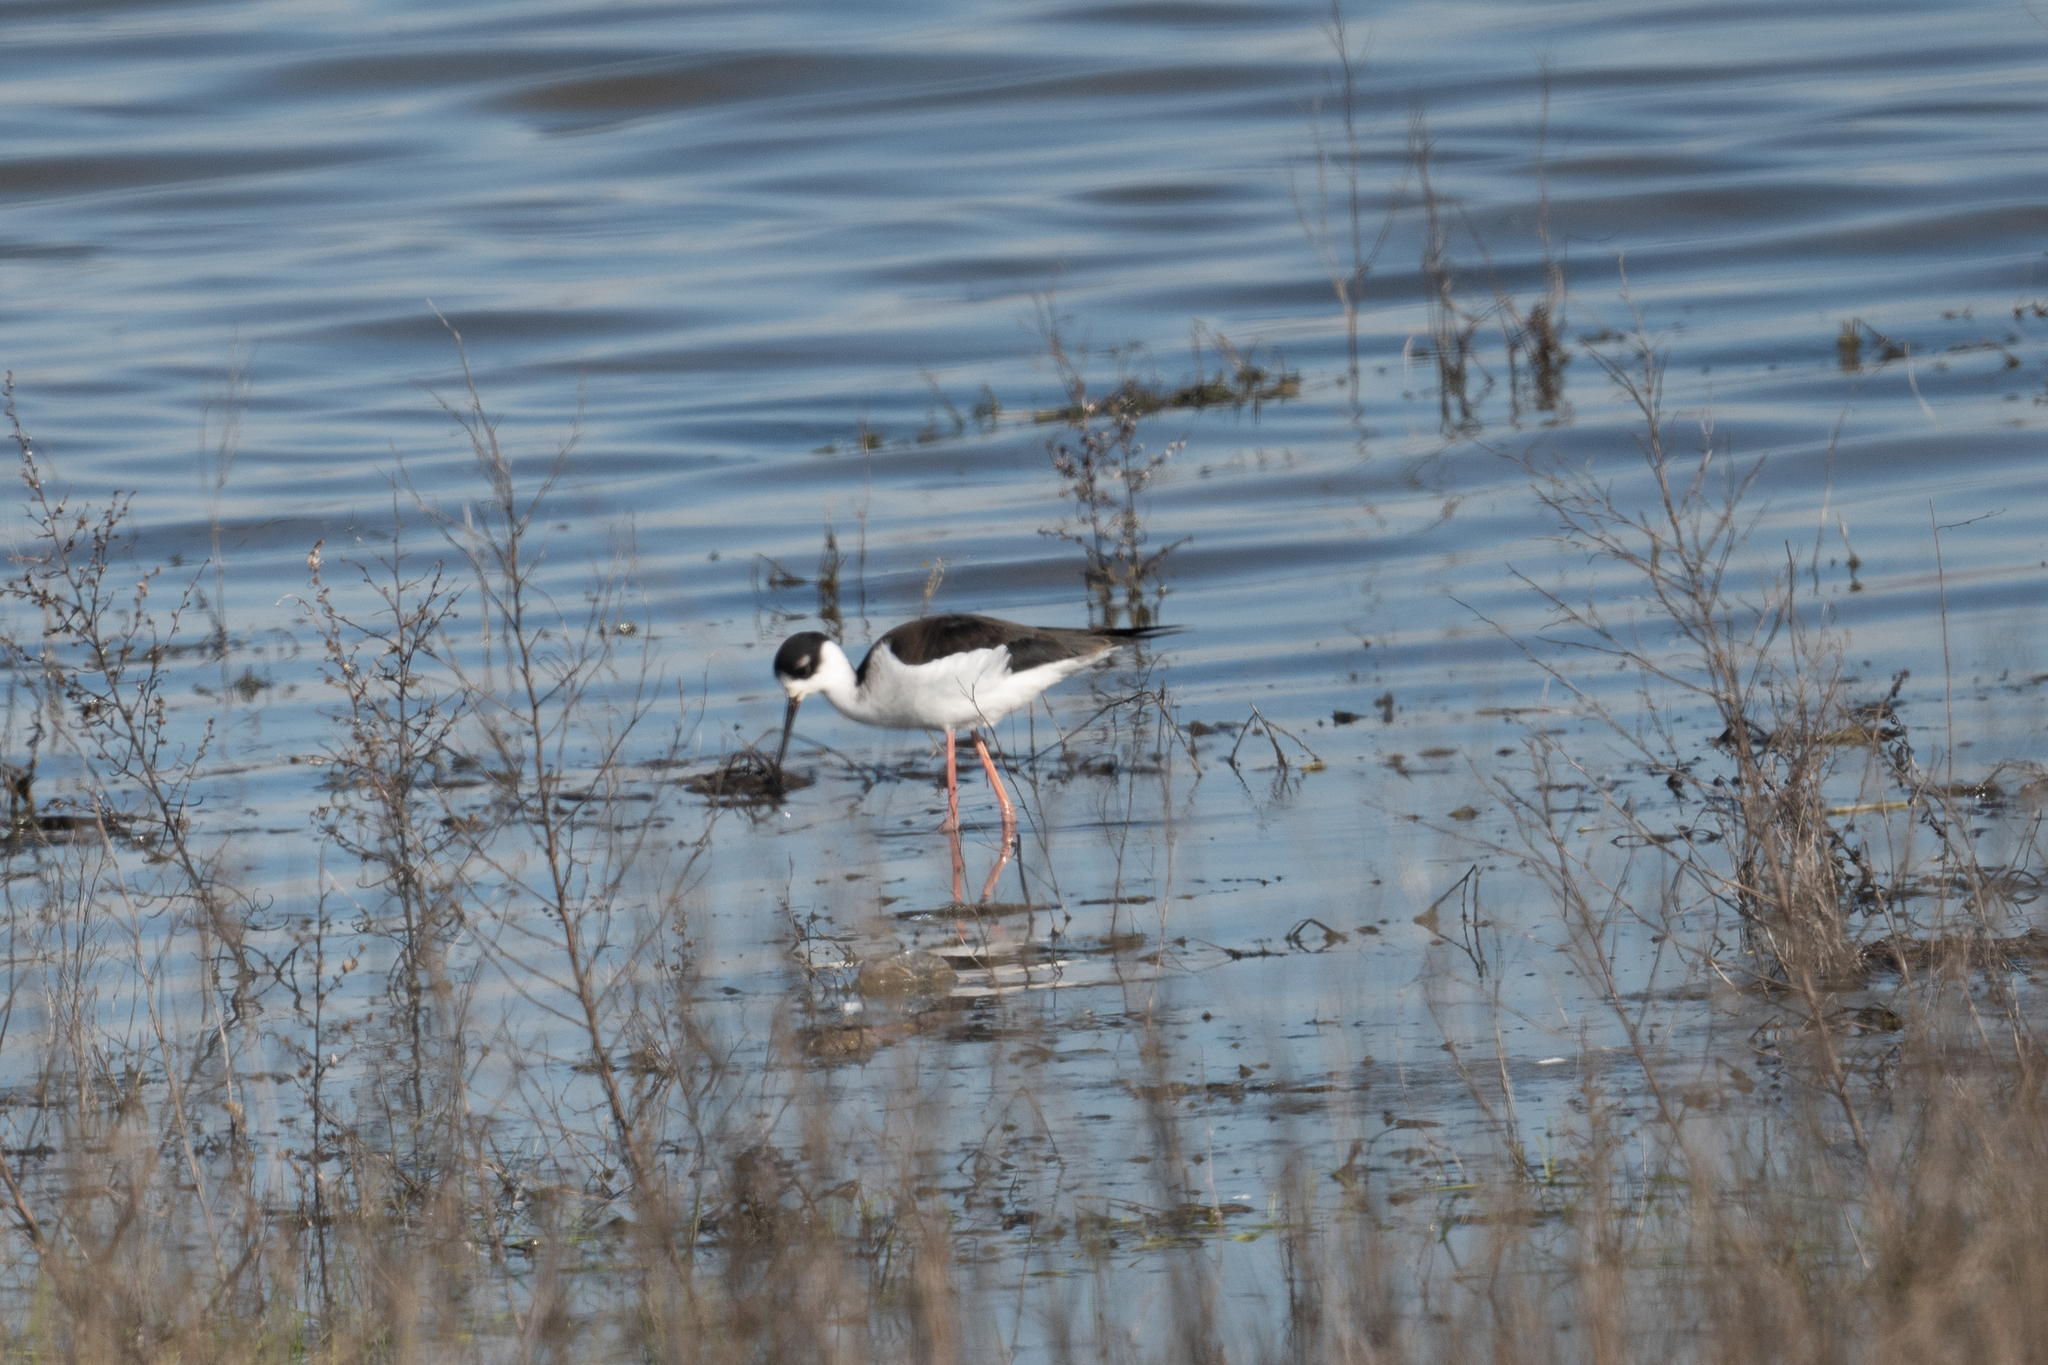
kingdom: Animalia
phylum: Chordata
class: Aves
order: Charadriiformes
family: Recurvirostridae
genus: Himantopus
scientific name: Himantopus mexicanus
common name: Black-necked stilt
